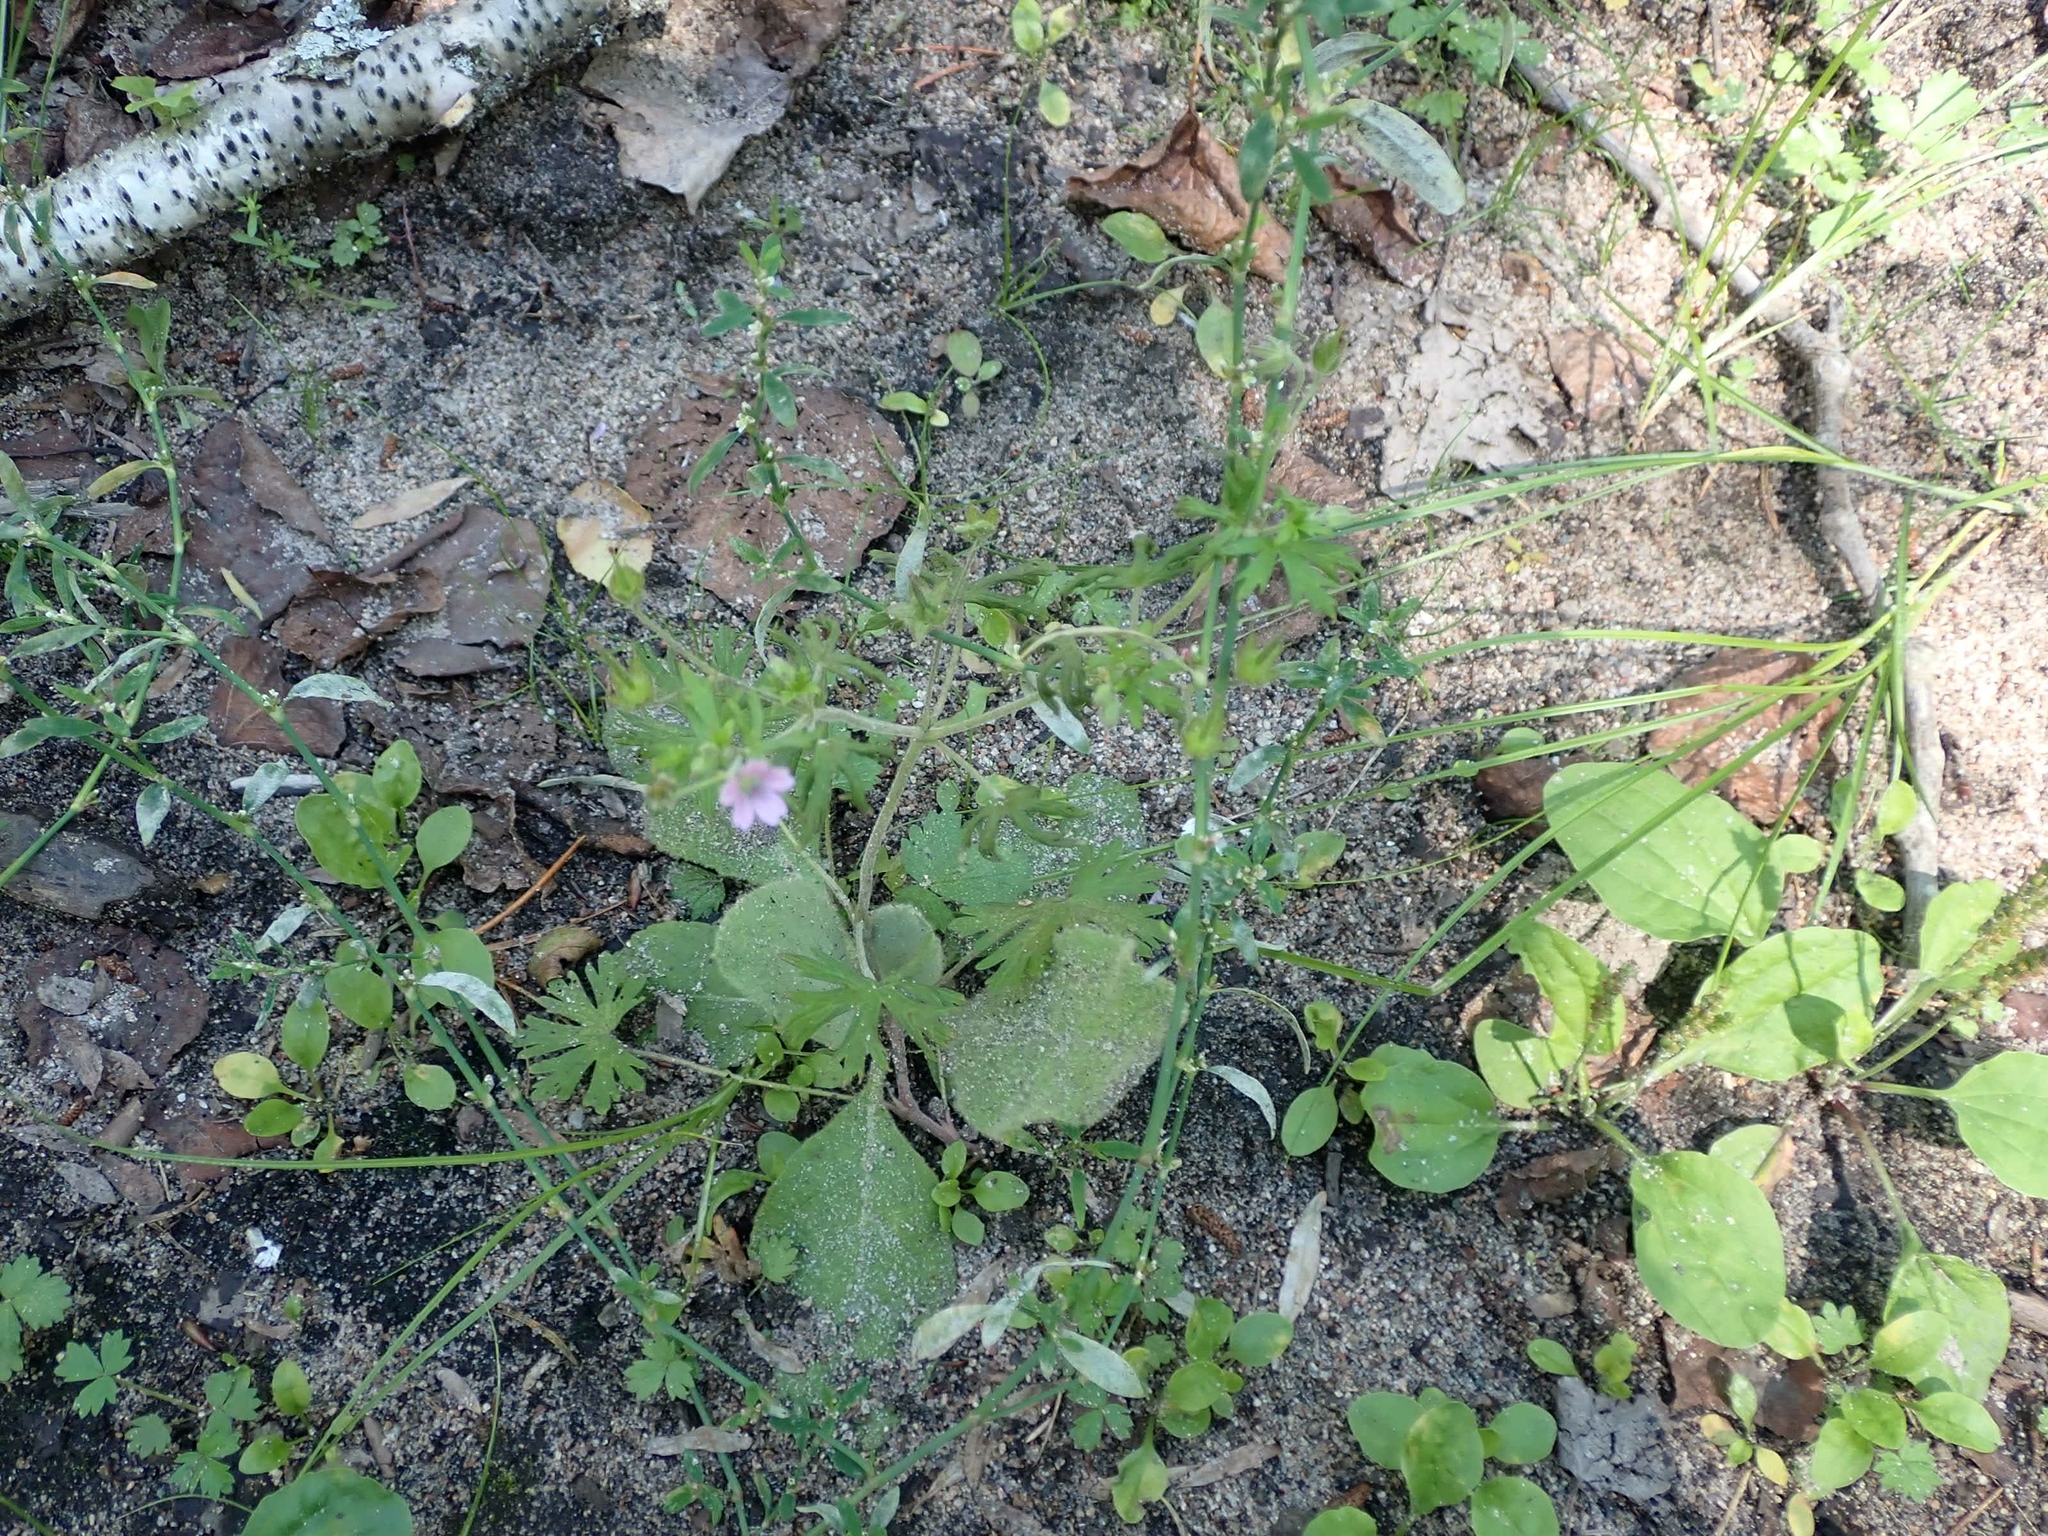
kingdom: Plantae
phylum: Tracheophyta
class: Magnoliopsida
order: Geraniales
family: Geraniaceae
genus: Geranium
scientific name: Geranium bicknellii
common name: Bicknell's cranesbill
